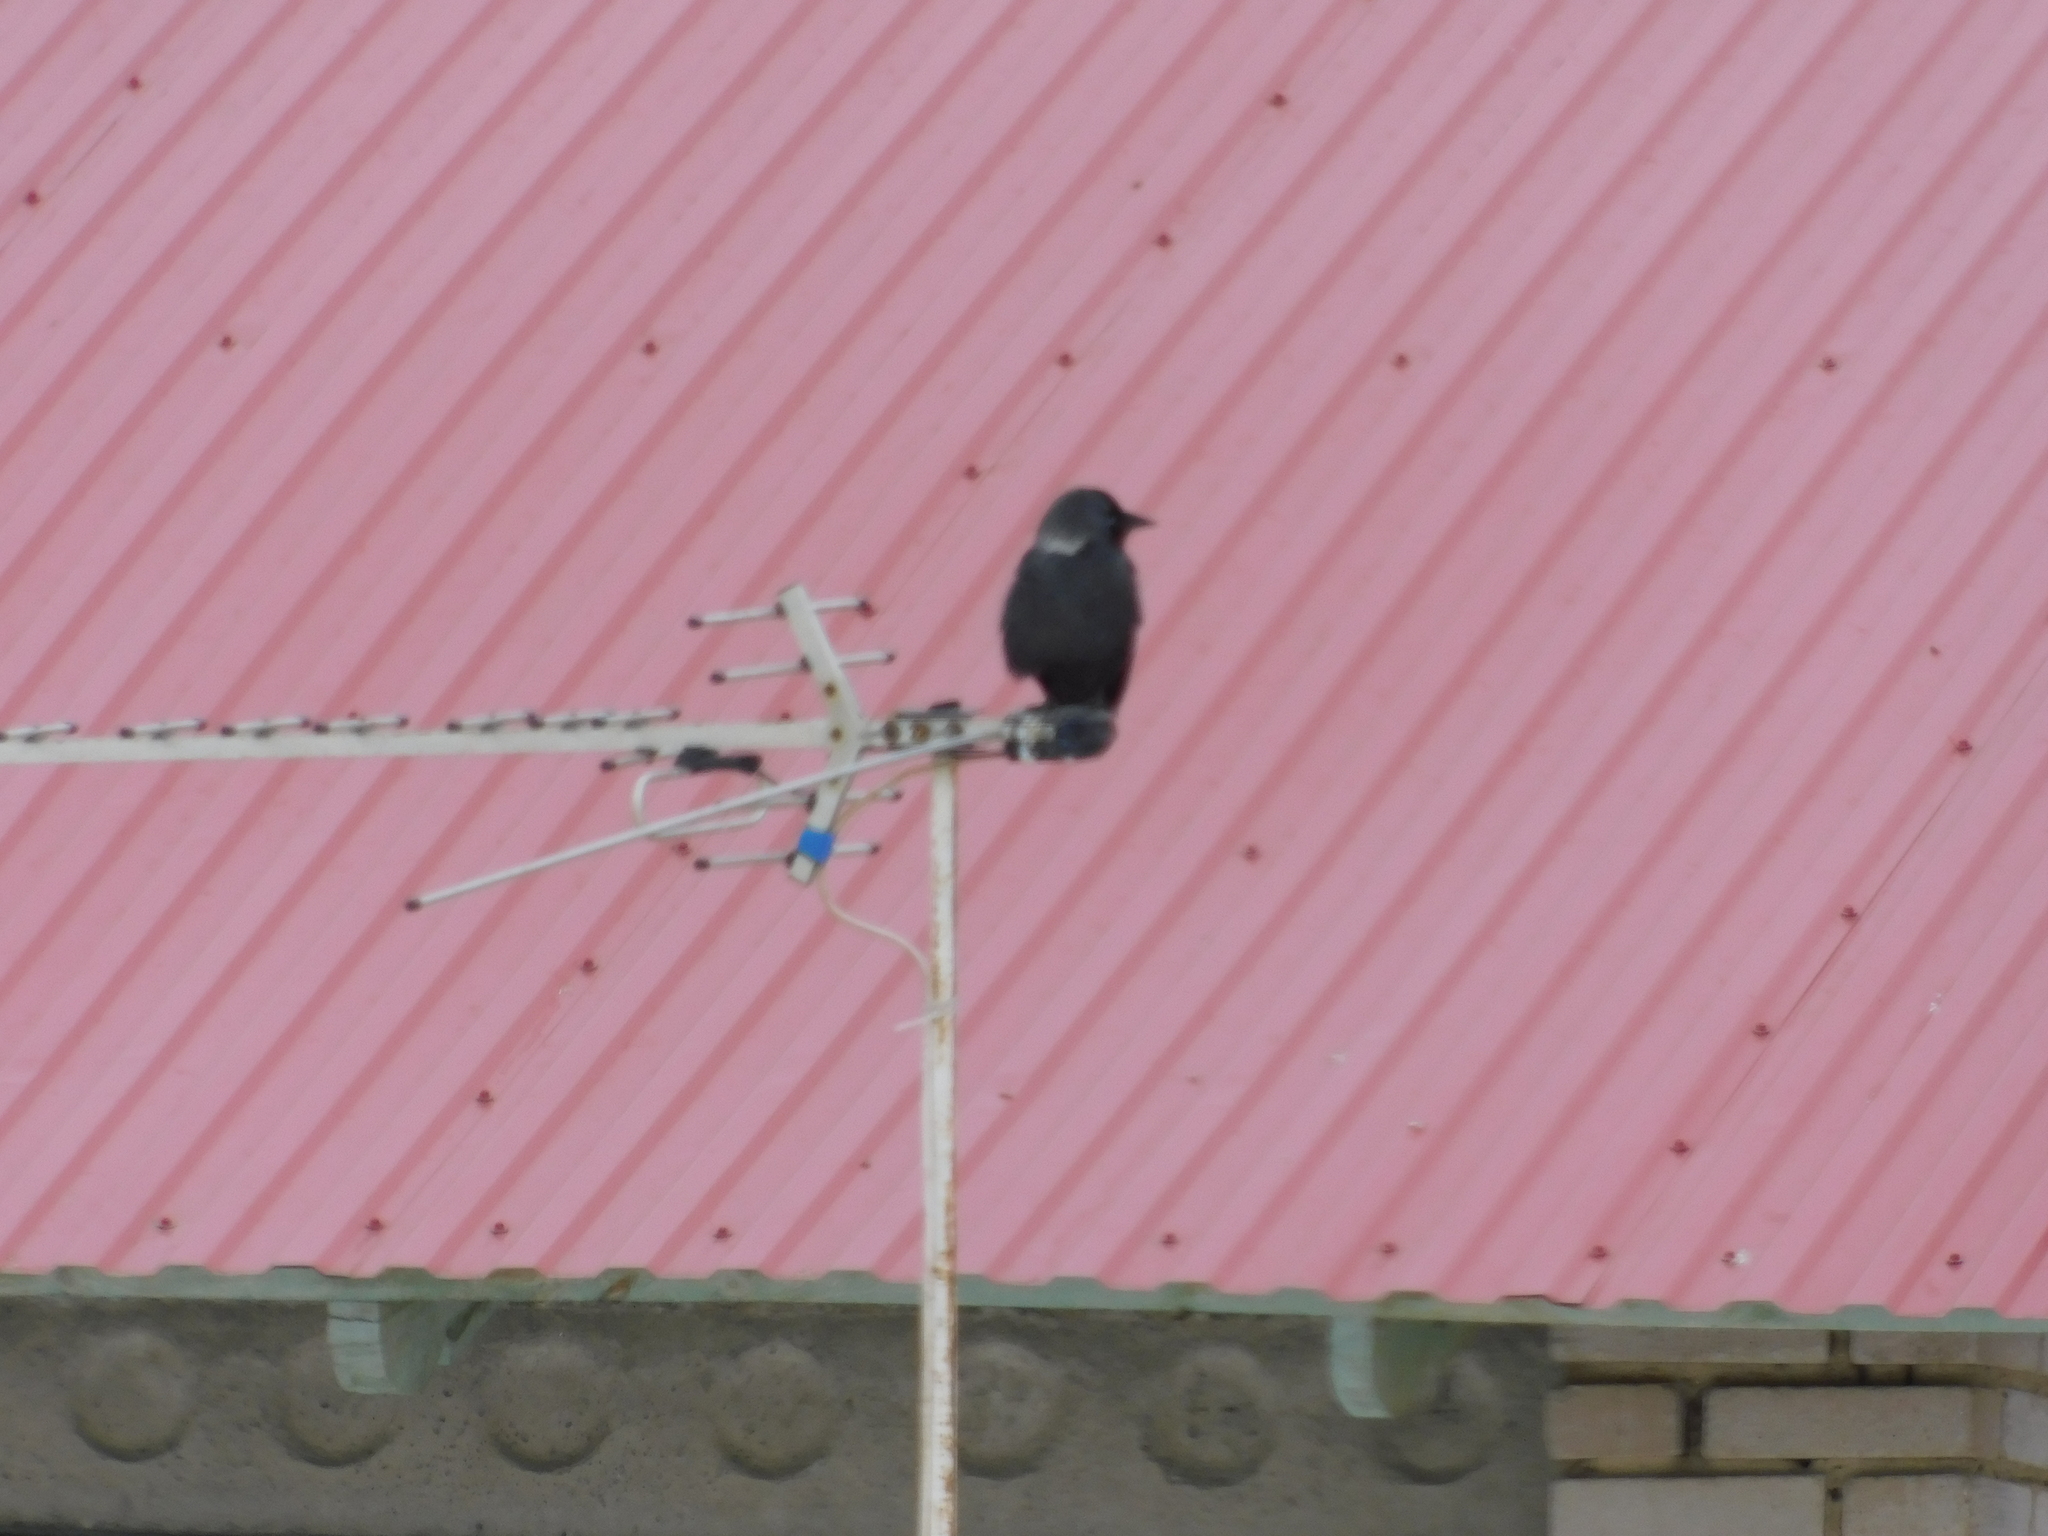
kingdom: Animalia
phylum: Chordata
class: Aves
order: Passeriformes
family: Corvidae
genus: Coloeus
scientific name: Coloeus monedula
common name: Western jackdaw
